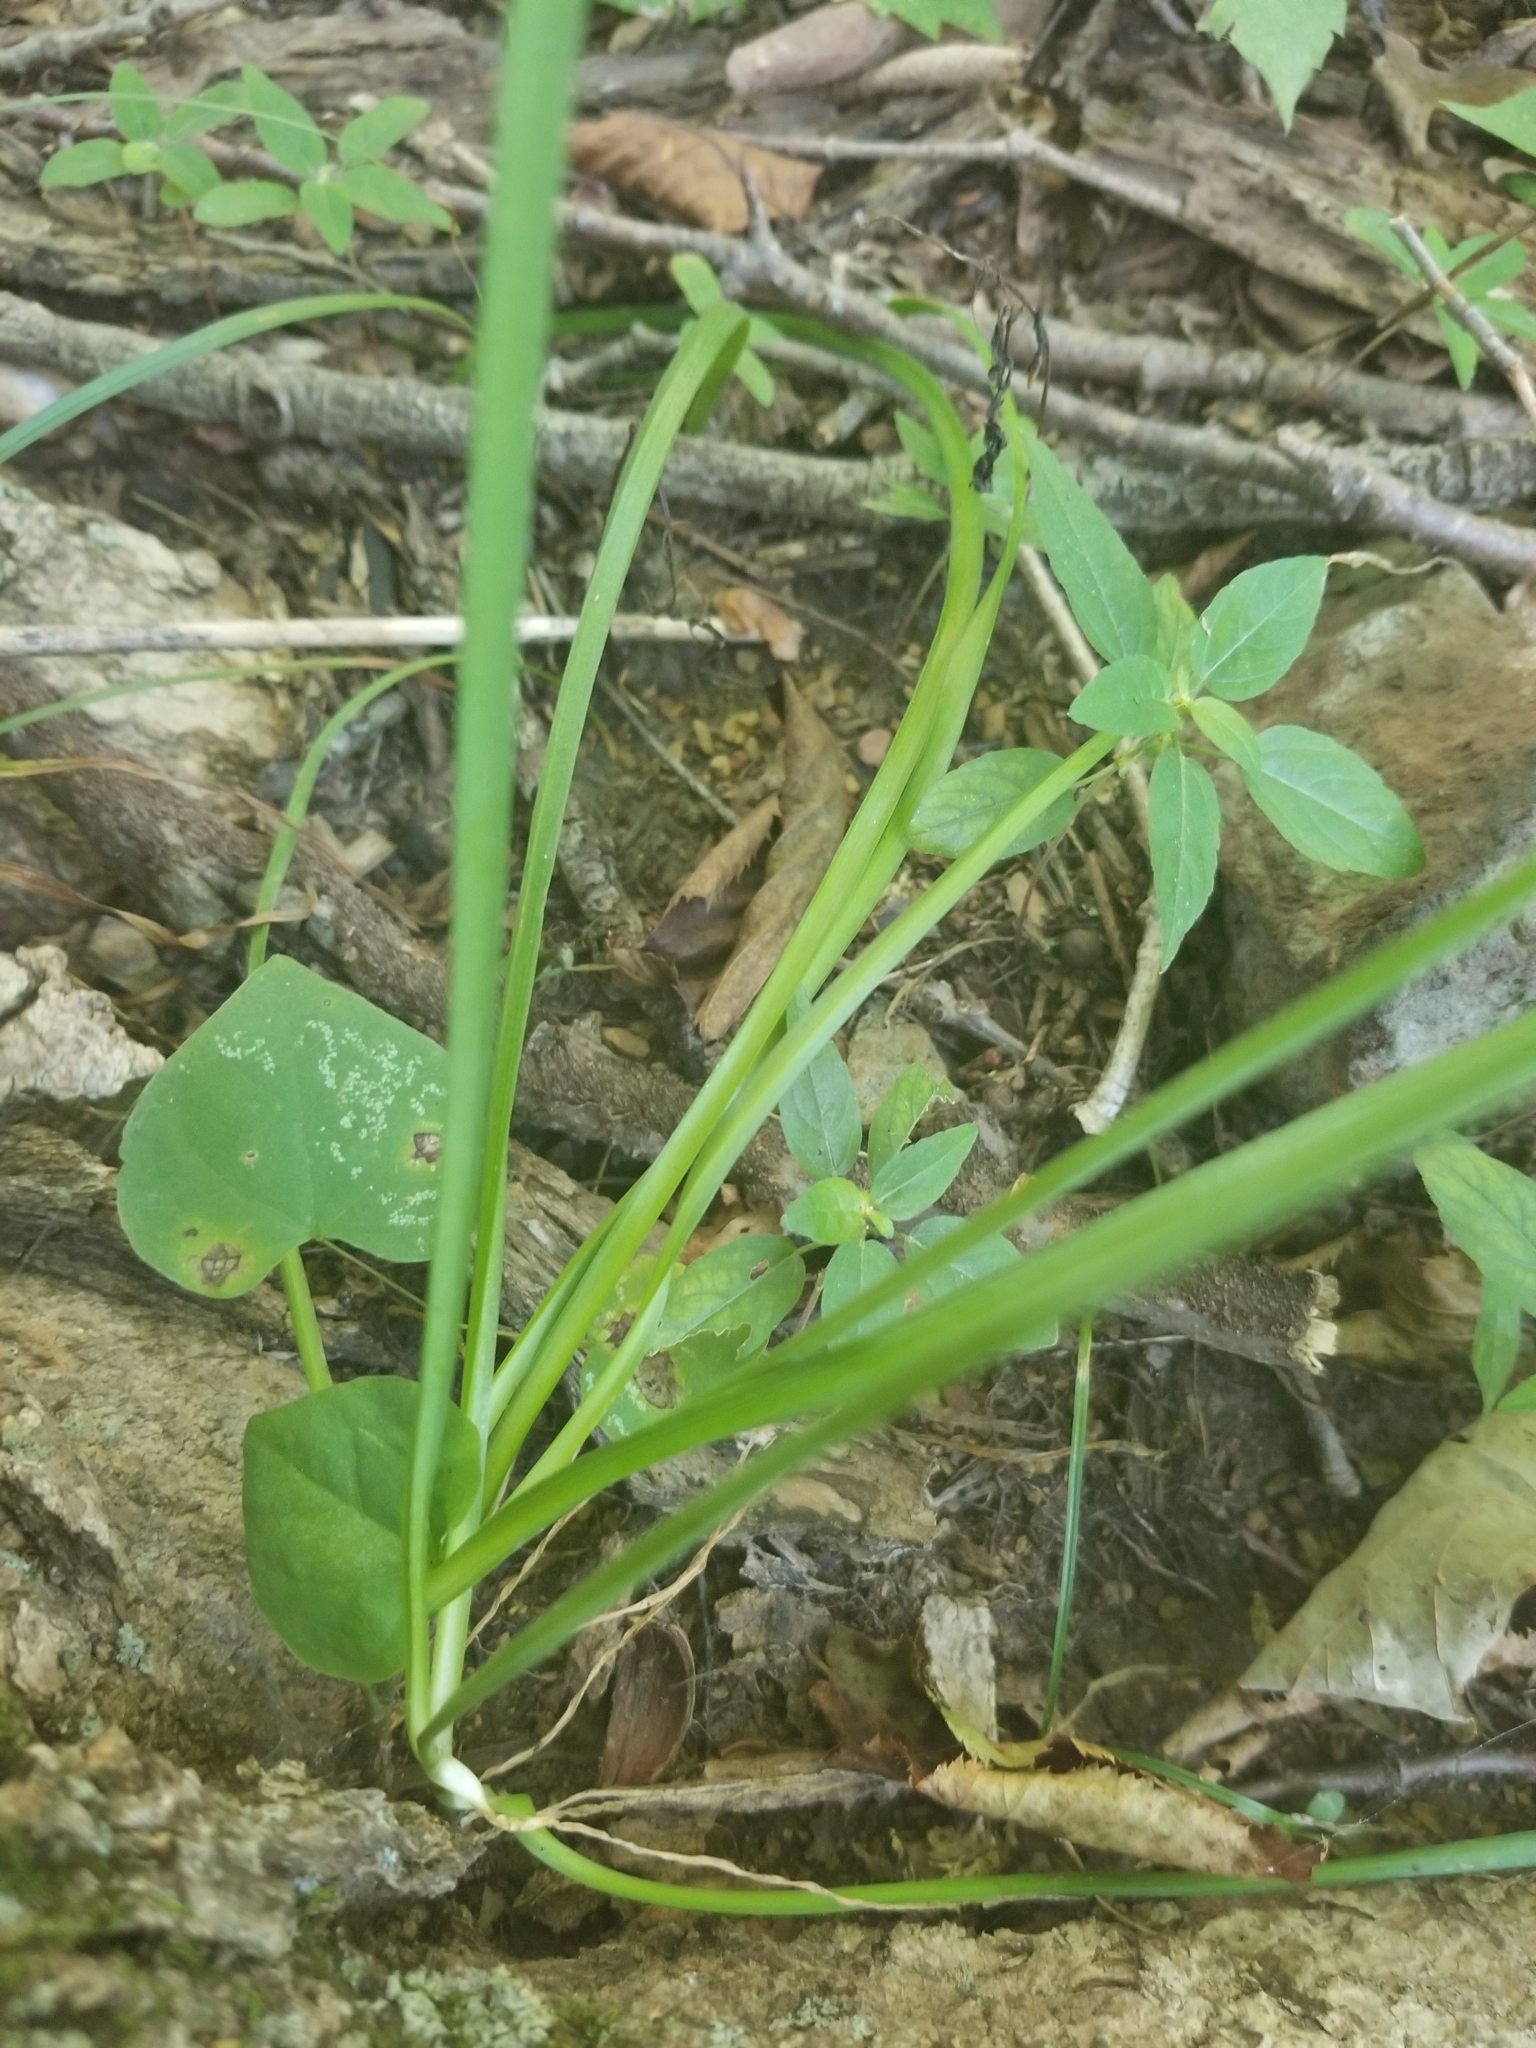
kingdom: Plantae
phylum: Tracheophyta
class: Liliopsida
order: Asparagales
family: Amaryllidaceae
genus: Allium
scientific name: Allium cernuum
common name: Nodding onion
